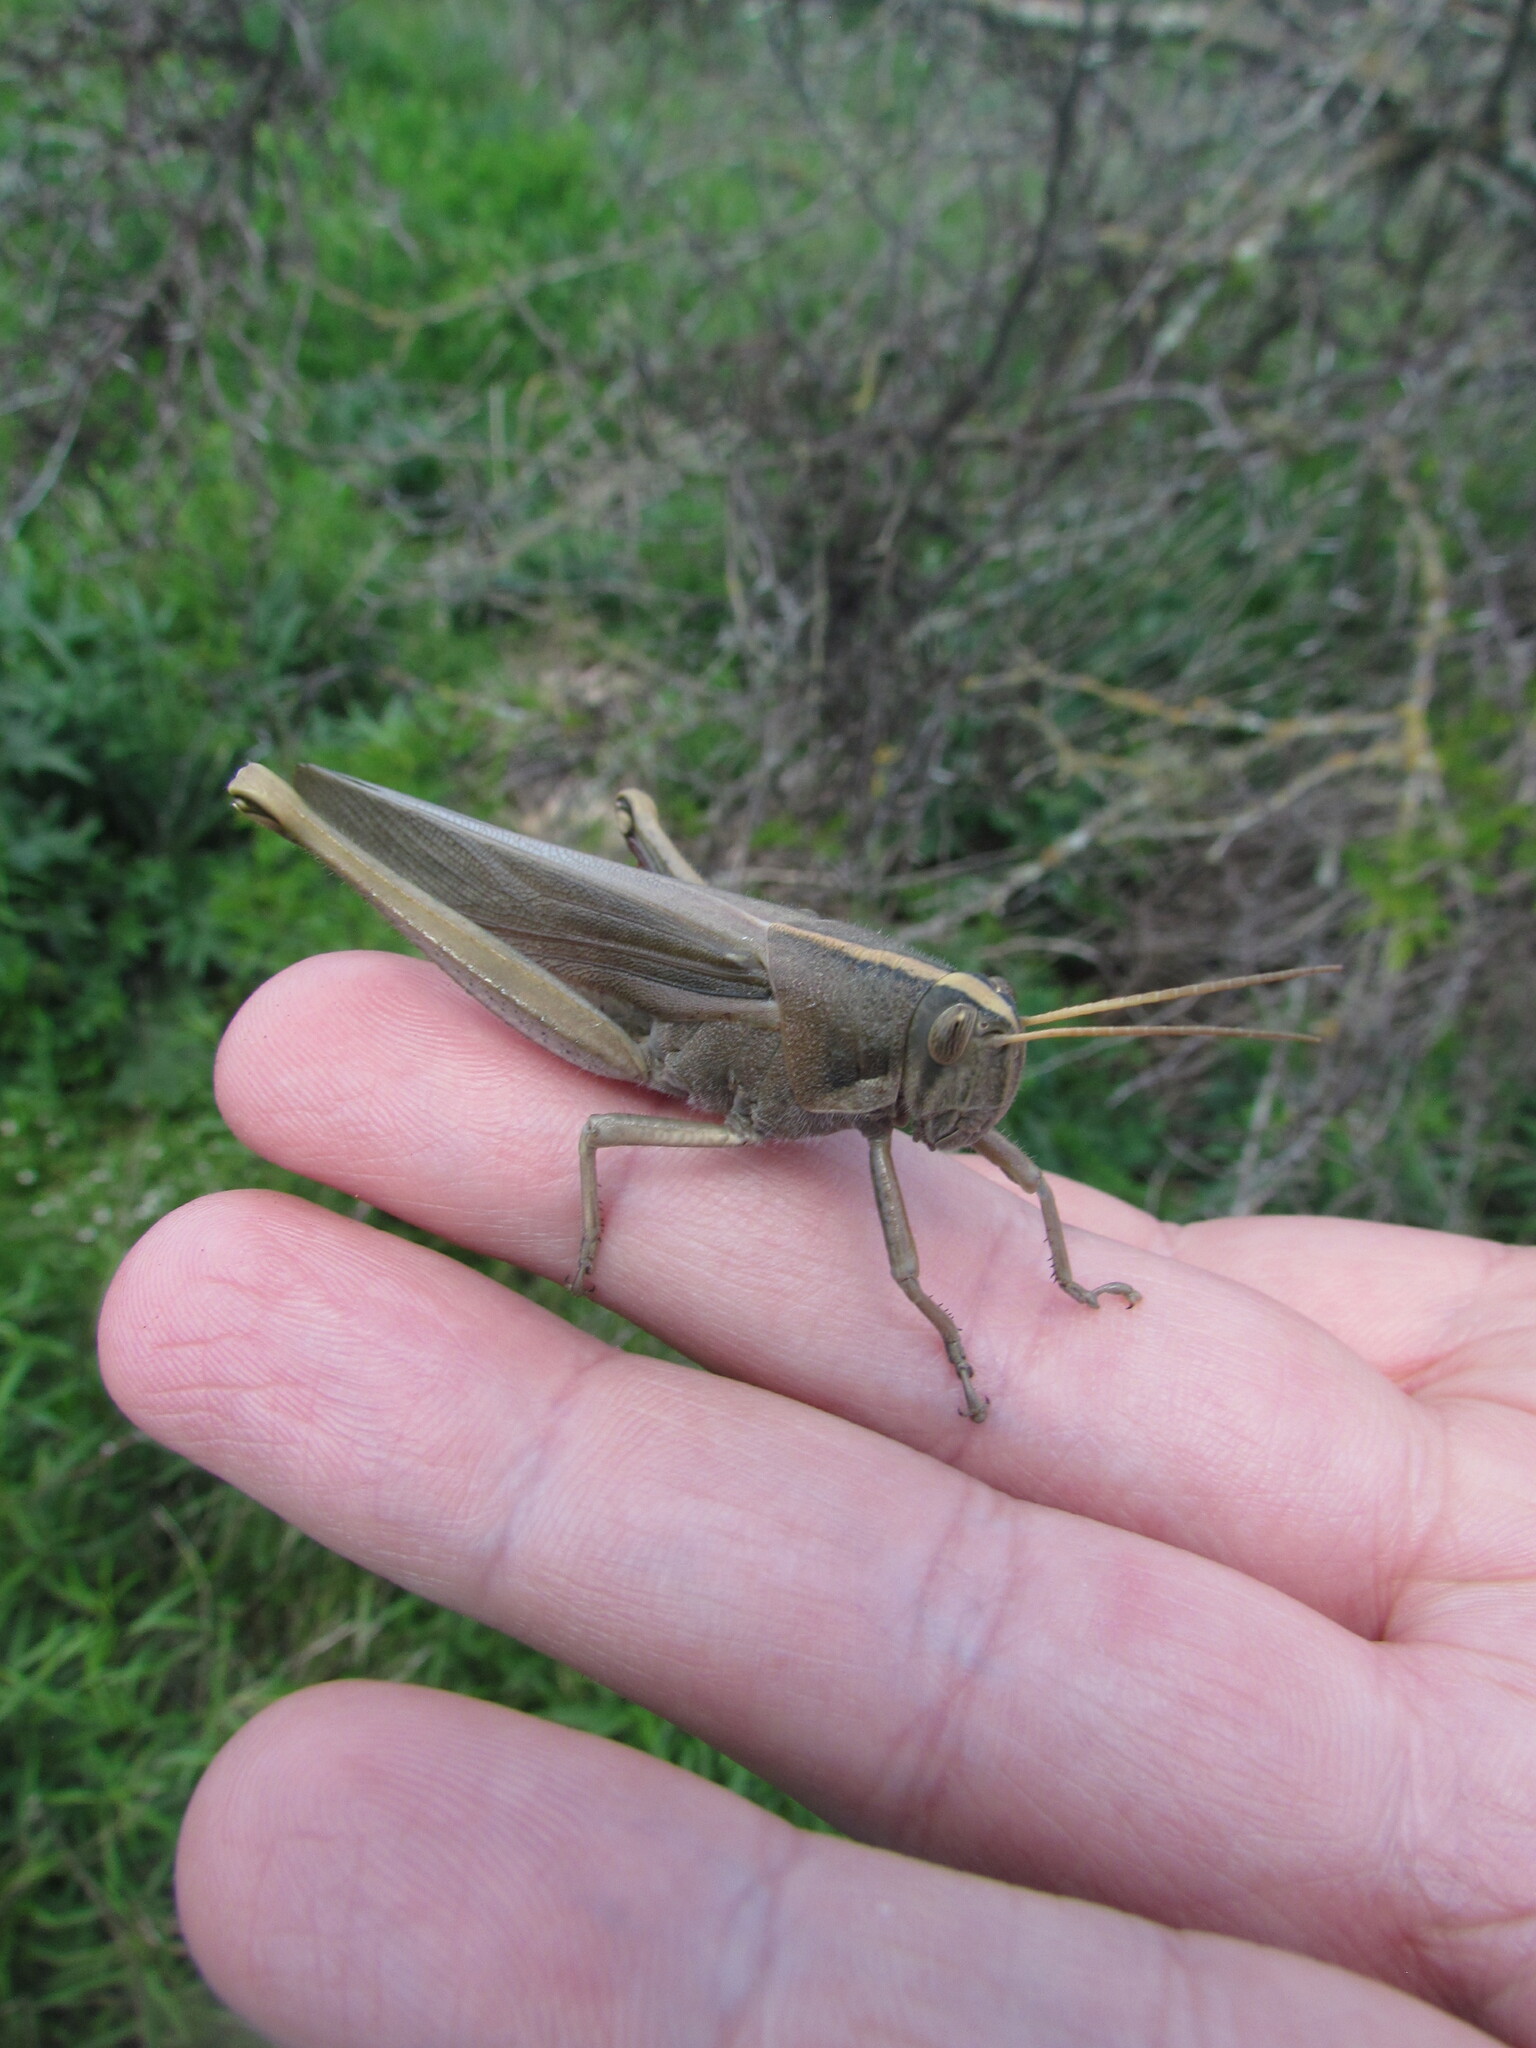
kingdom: Animalia
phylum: Arthropoda
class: Insecta
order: Orthoptera
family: Acrididae
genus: Schistocerca
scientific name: Schistocerca flavofasciata
